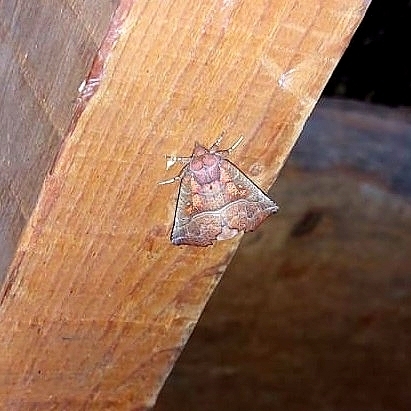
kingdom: Animalia
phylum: Arthropoda
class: Insecta
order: Lepidoptera
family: Erebidae
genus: Scoliopteryx
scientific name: Scoliopteryx libatrix
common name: Herald
